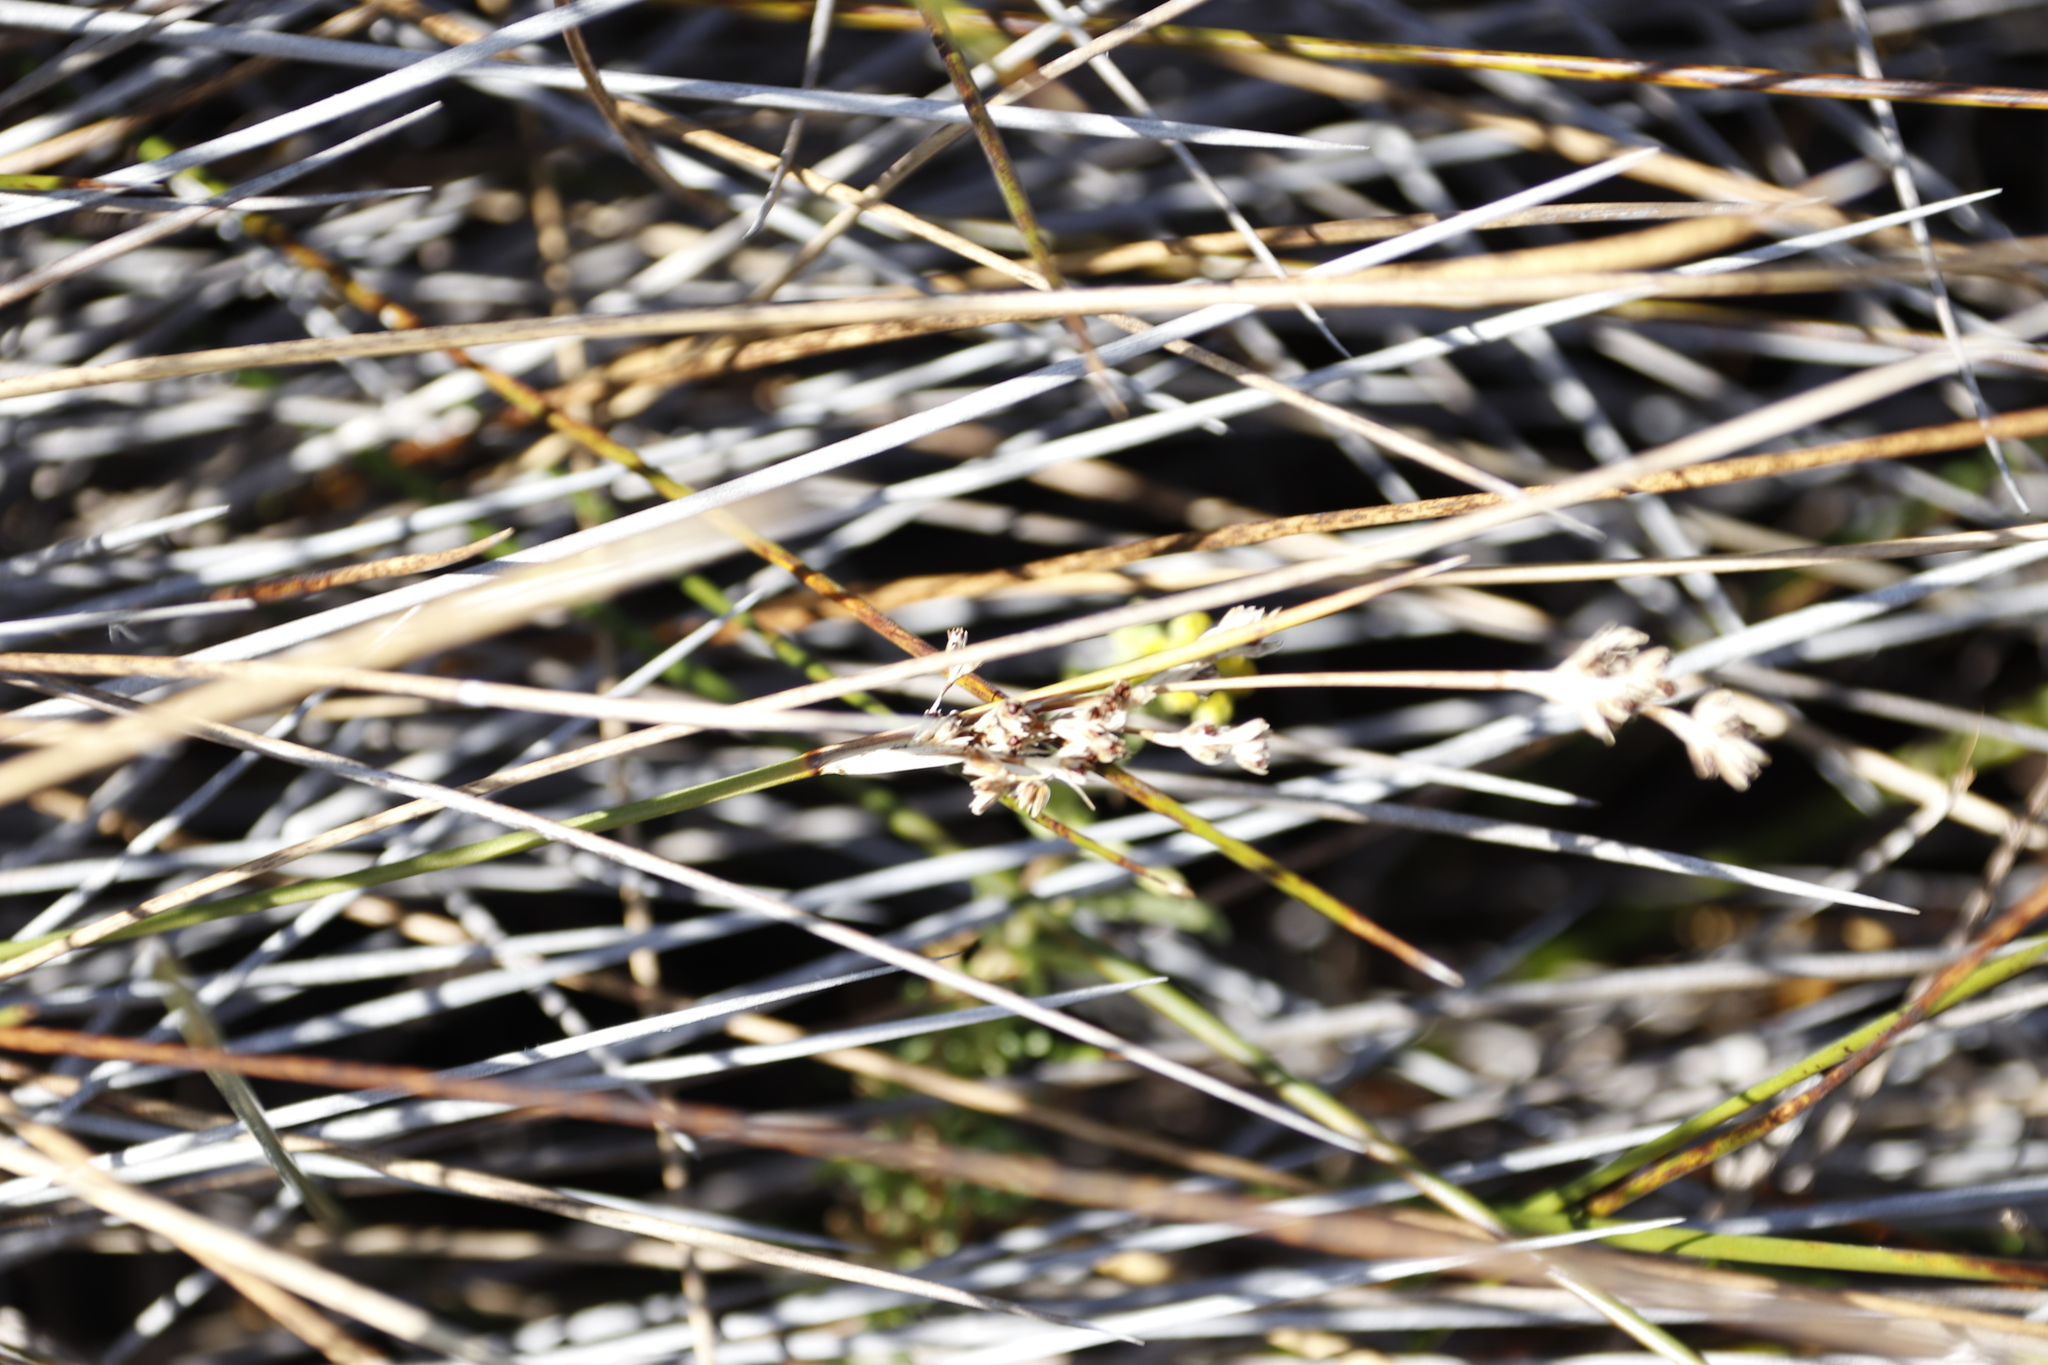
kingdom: Plantae
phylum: Tracheophyta
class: Liliopsida
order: Poales
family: Juncaceae
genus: Juncus
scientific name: Juncus kraussii
